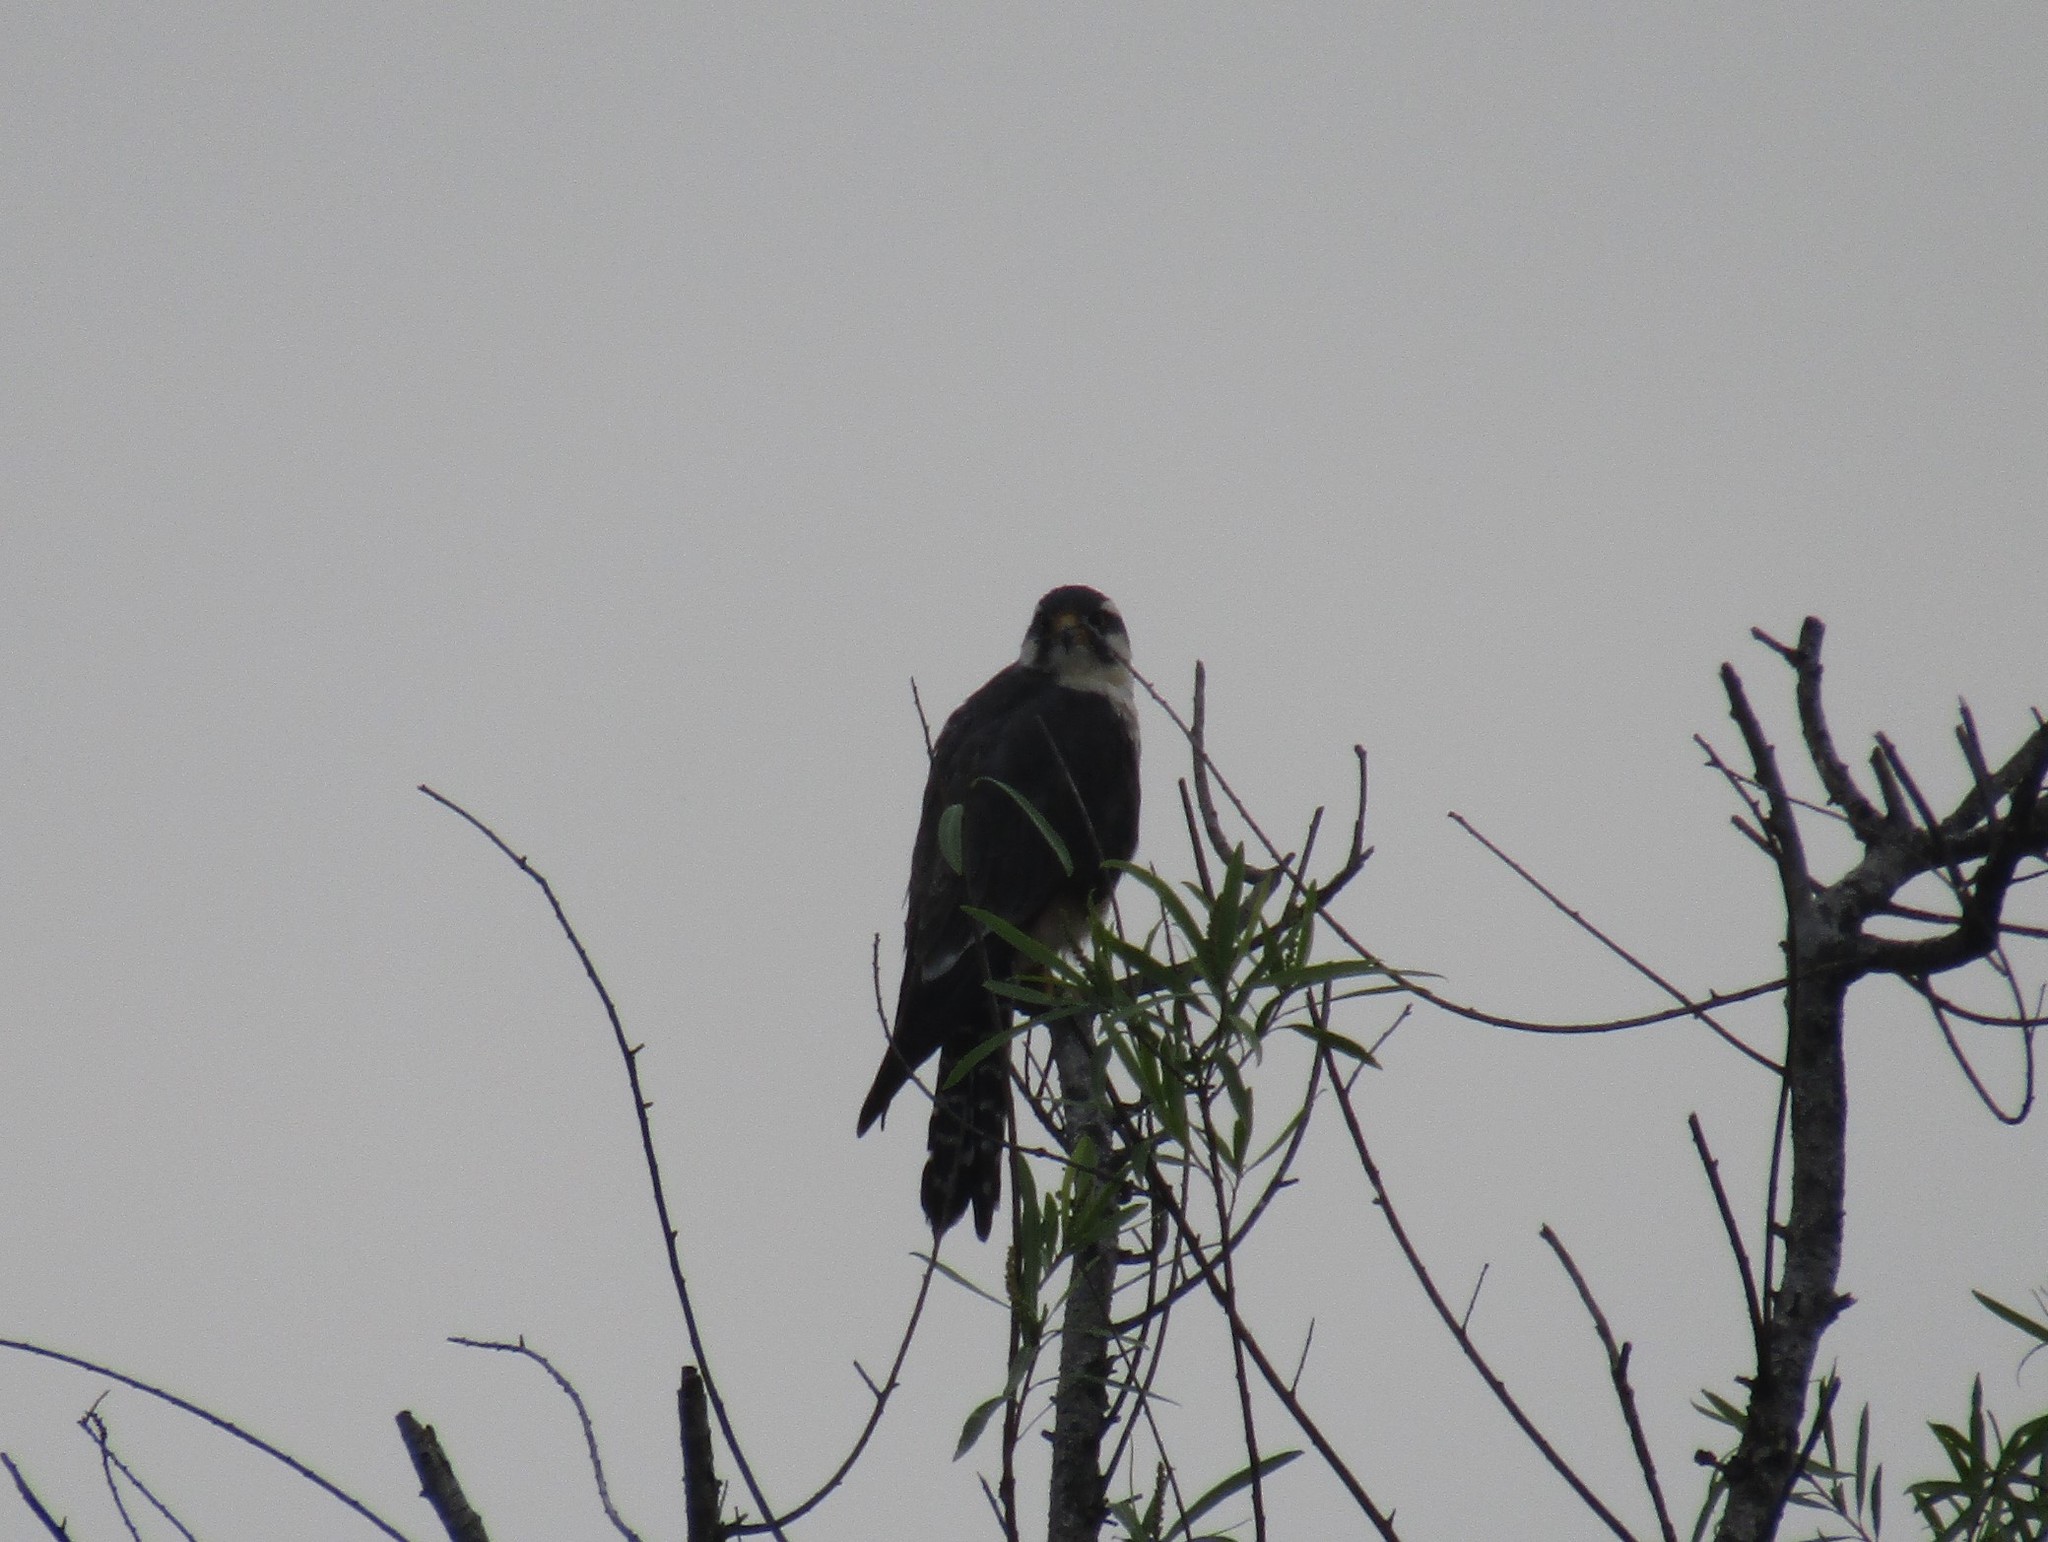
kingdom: Animalia
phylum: Chordata
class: Aves
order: Falconiformes
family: Falconidae
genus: Falco
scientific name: Falco femoralis
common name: Aplomado falcon
